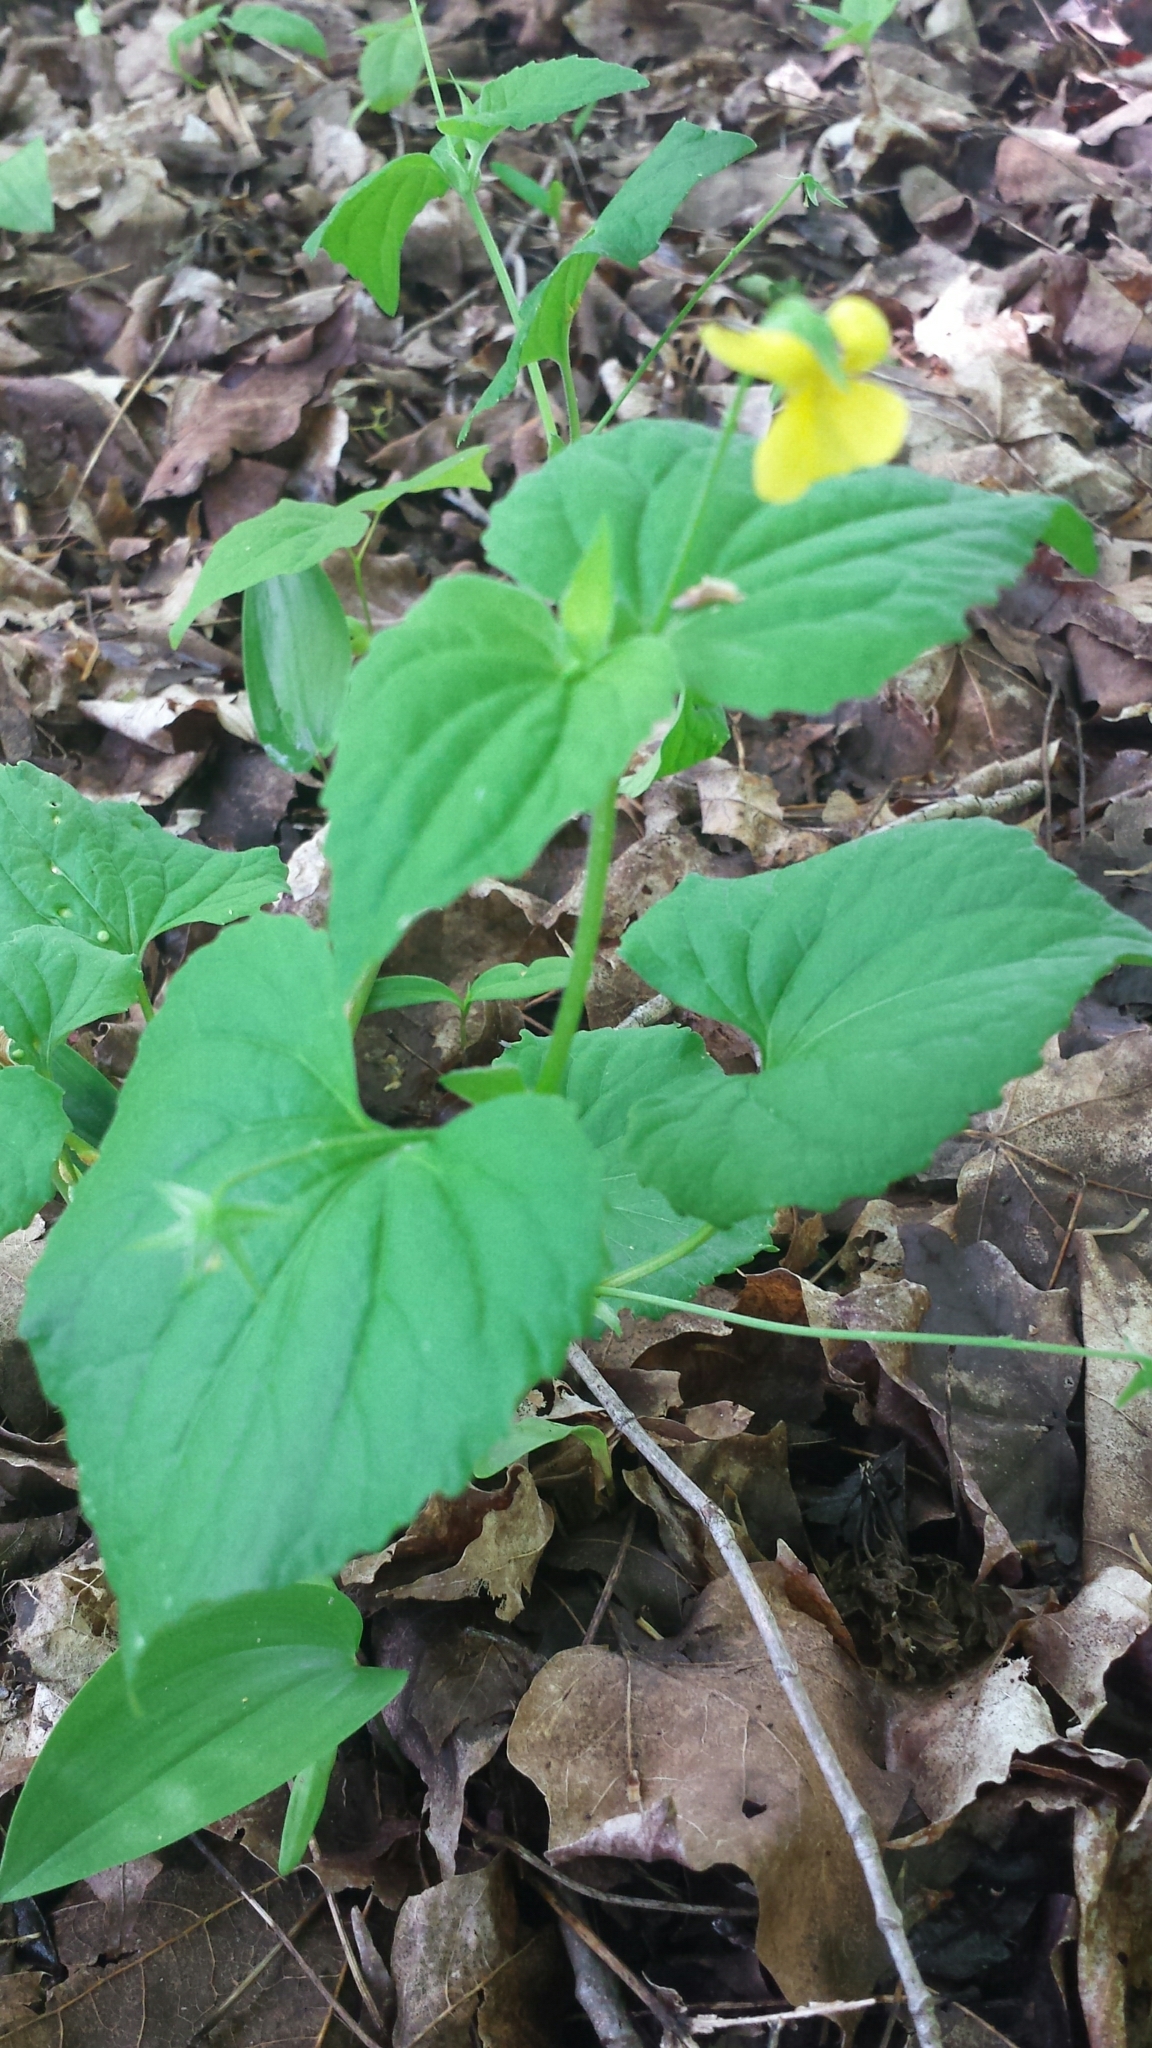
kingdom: Plantae
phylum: Tracheophyta
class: Magnoliopsida
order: Malpighiales
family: Violaceae
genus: Viola
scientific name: Viola eriocarpa
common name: Smooth yellow violet
